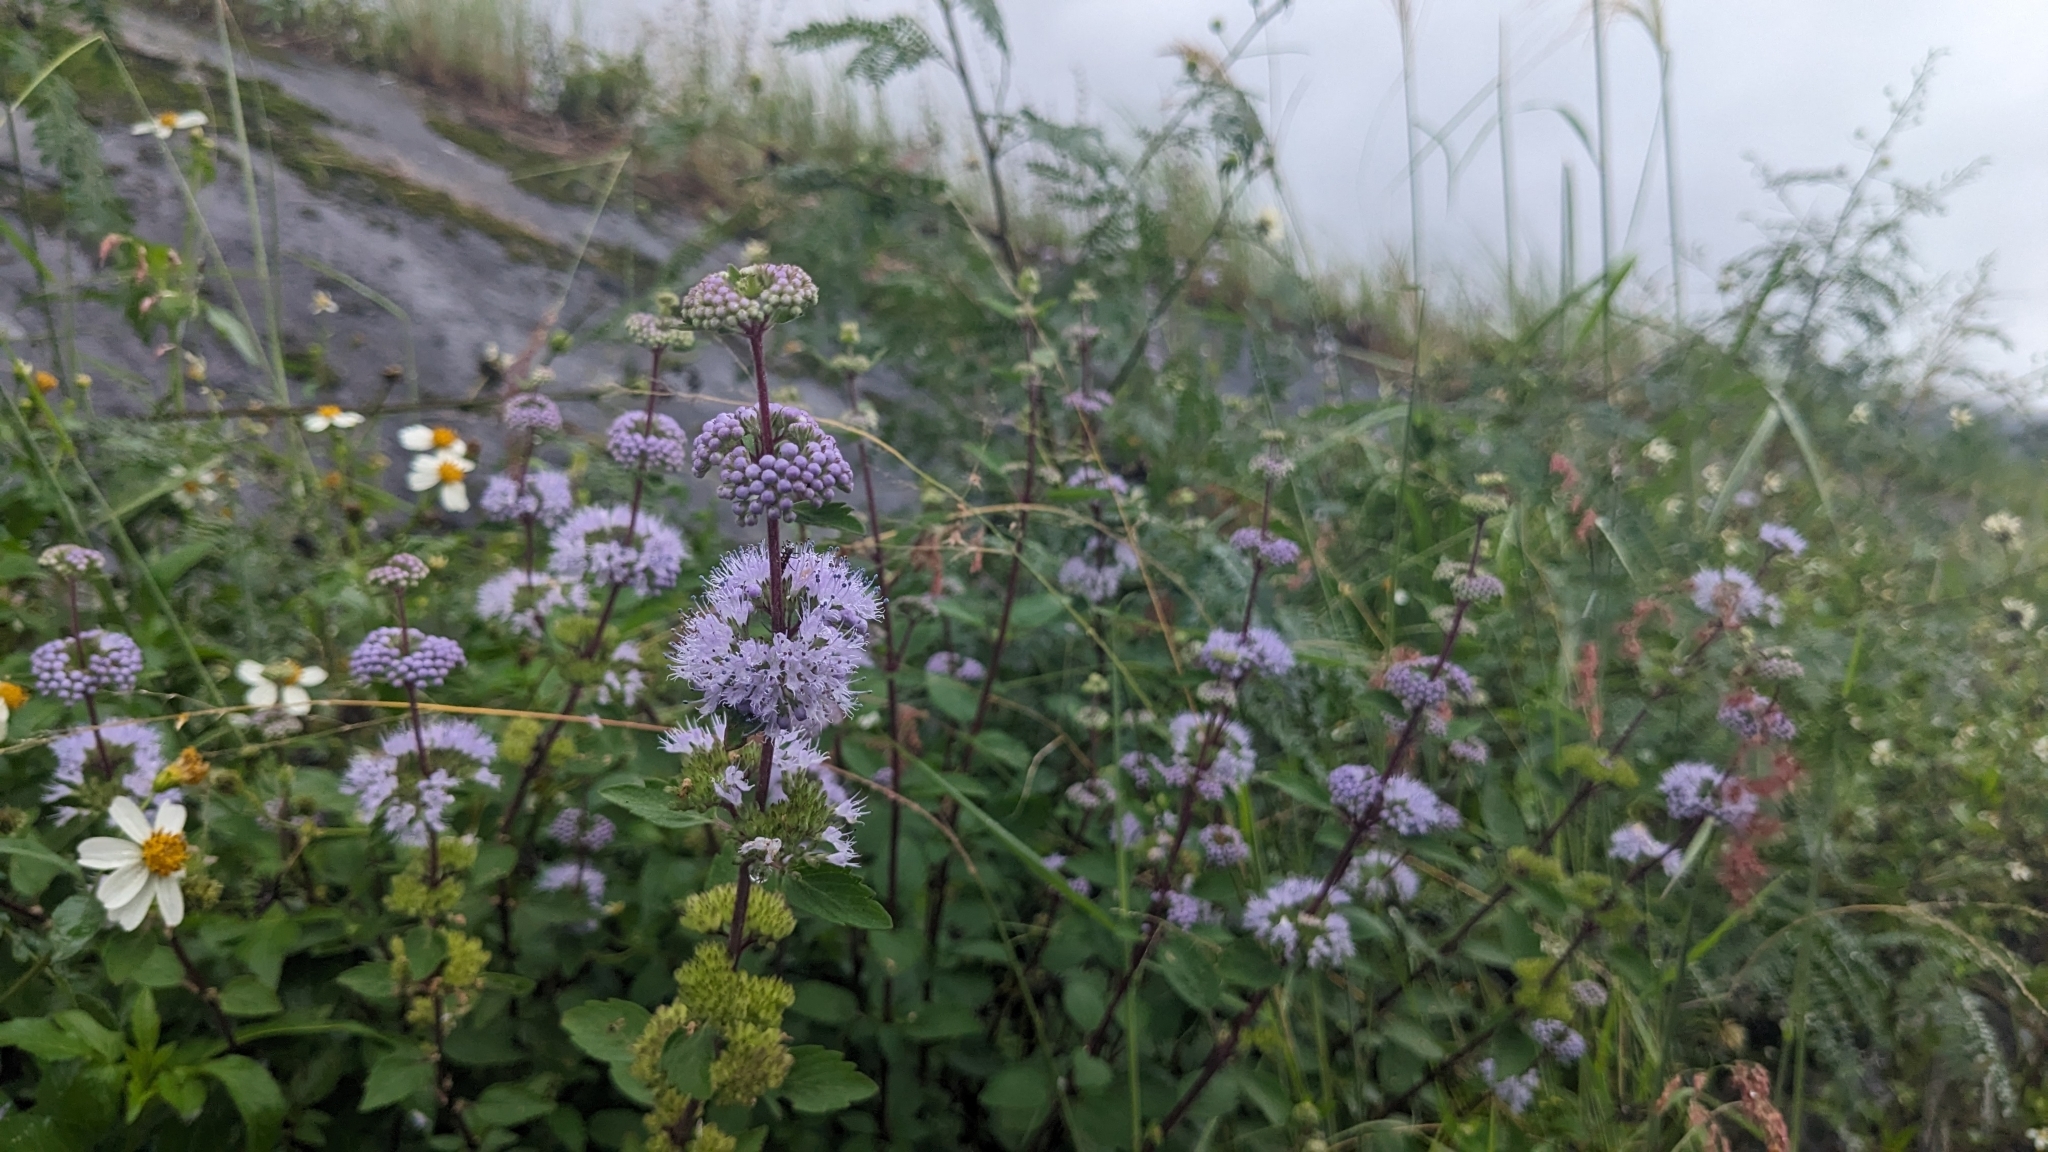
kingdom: Plantae
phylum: Tracheophyta
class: Magnoliopsida
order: Lamiales
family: Lamiaceae
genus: Caryopteris
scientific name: Caryopteris incana
